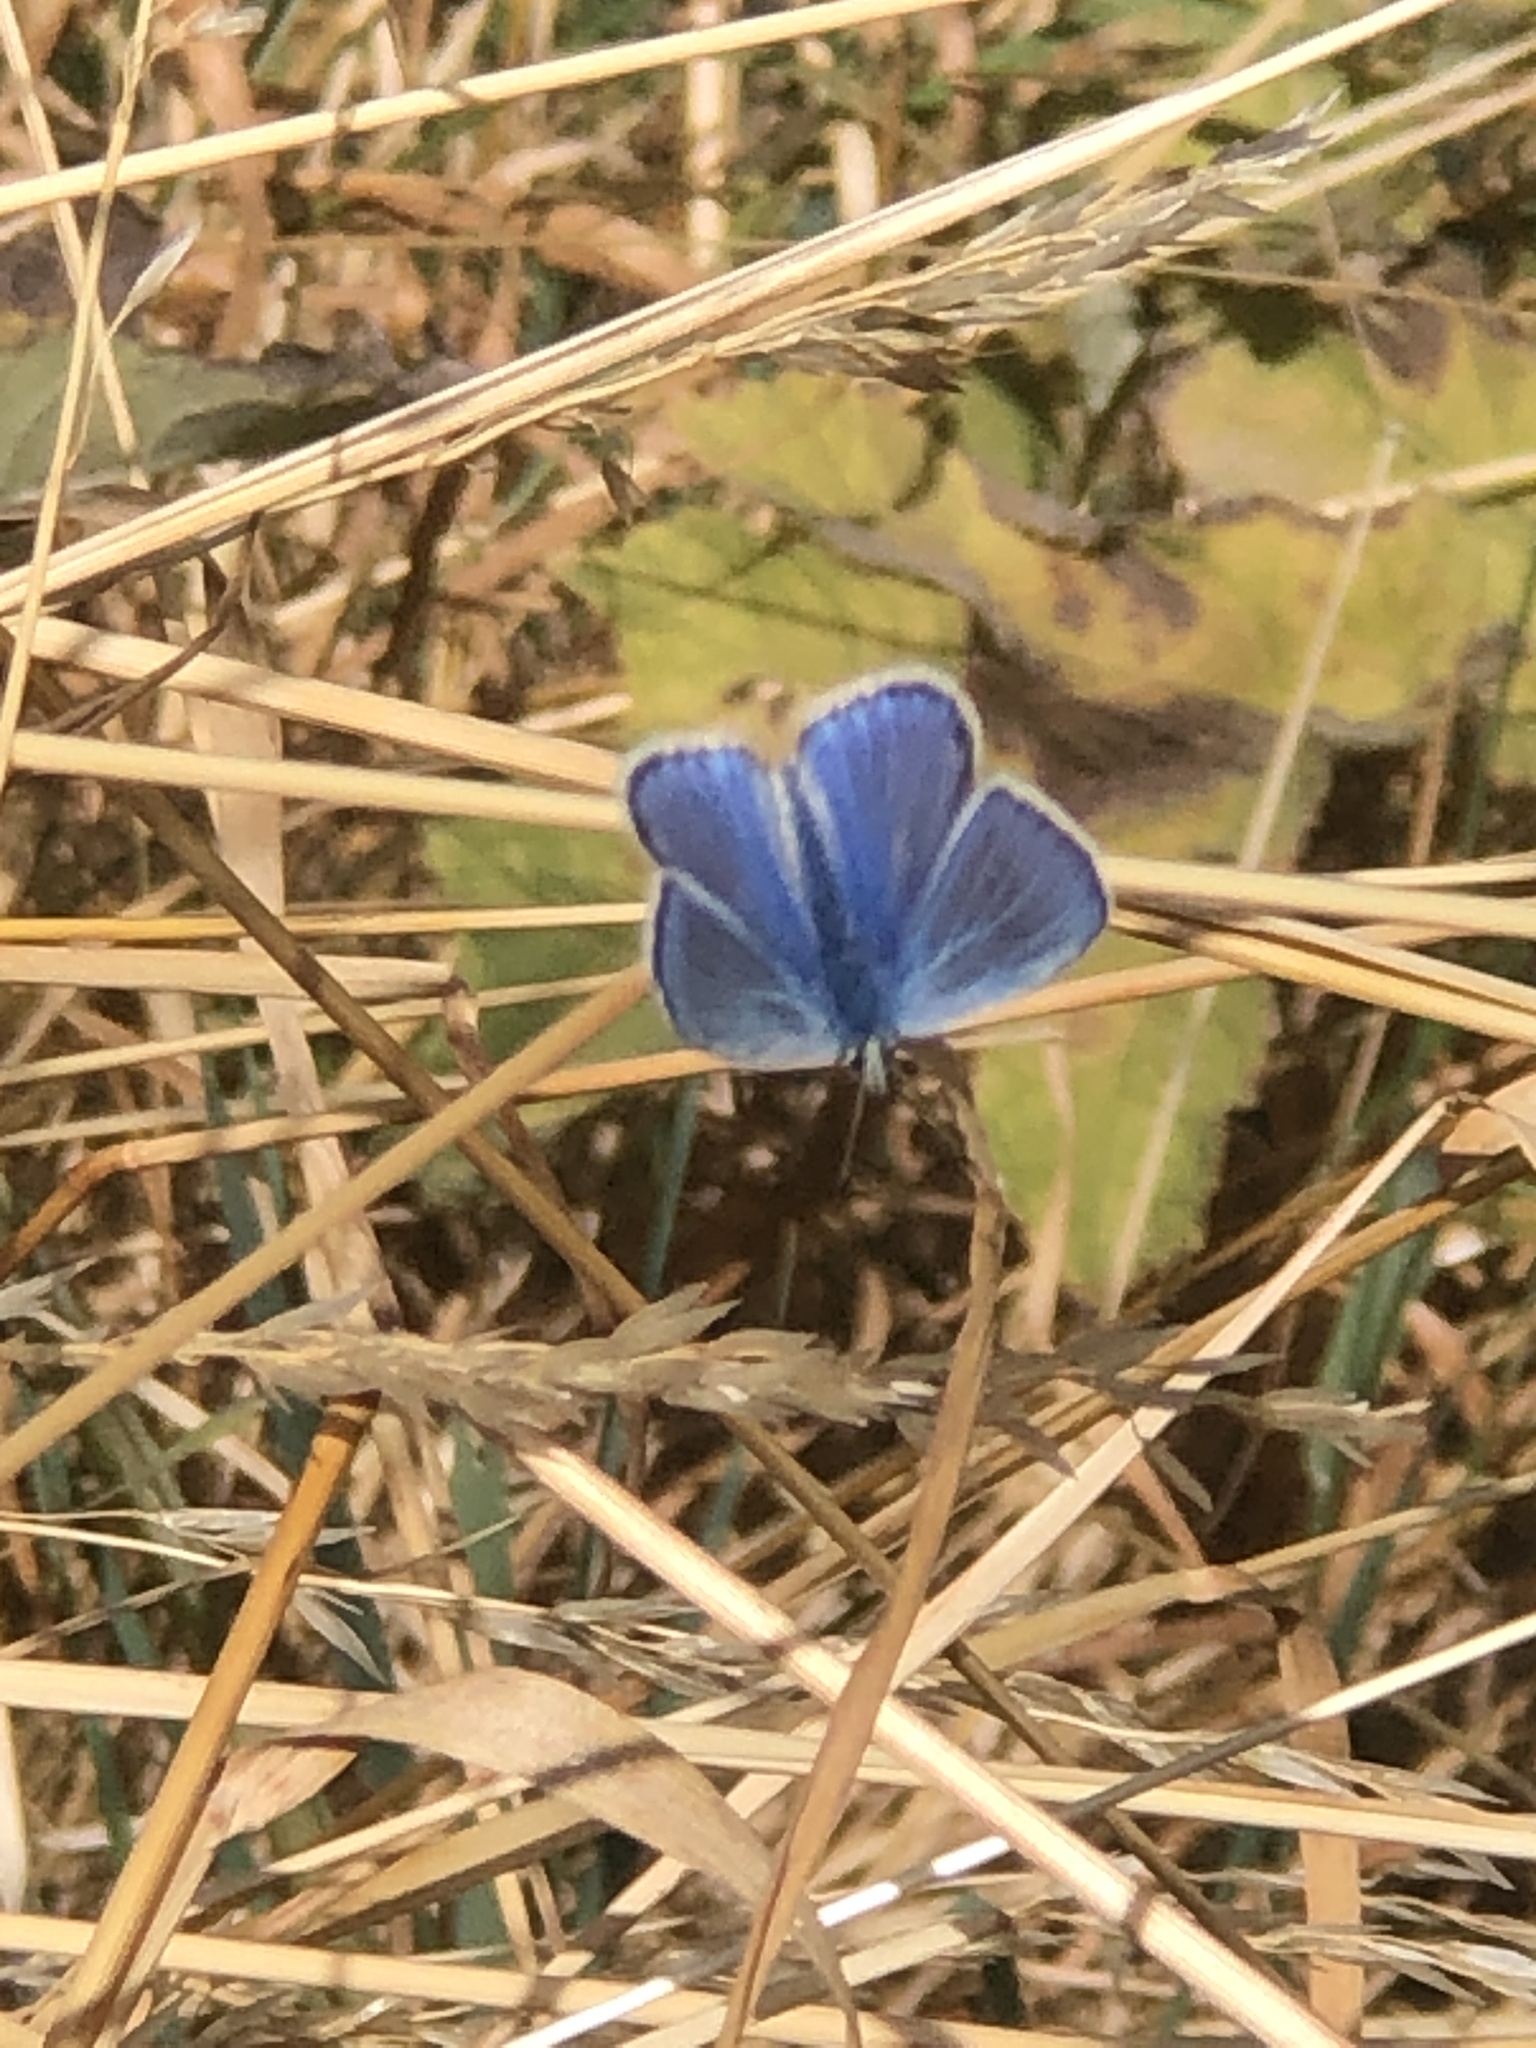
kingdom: Animalia
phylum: Arthropoda
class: Insecta
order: Lepidoptera
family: Lycaenidae
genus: Polyommatus
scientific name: Polyommatus icarus
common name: Common blue
